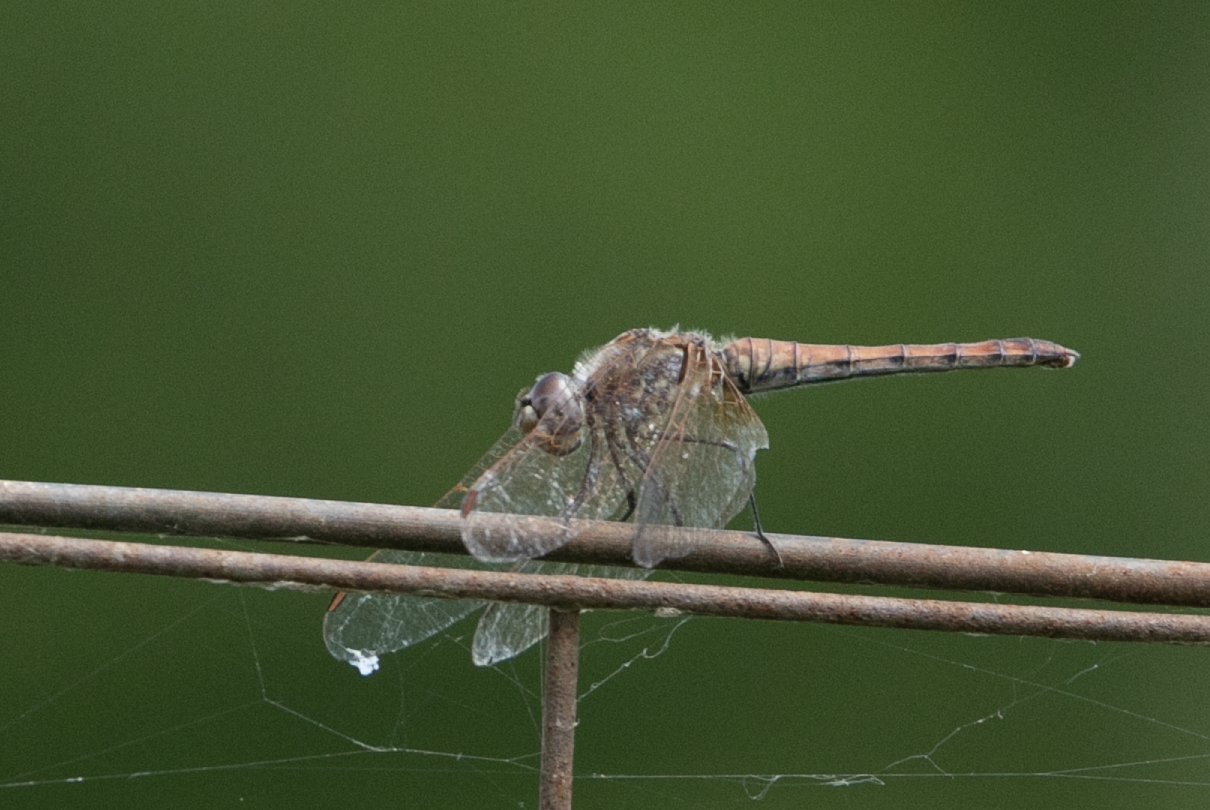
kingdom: Animalia
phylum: Arthropoda
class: Insecta
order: Odonata
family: Libellulidae
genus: Trithemis
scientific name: Trithemis annulata
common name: Violet dropwing
